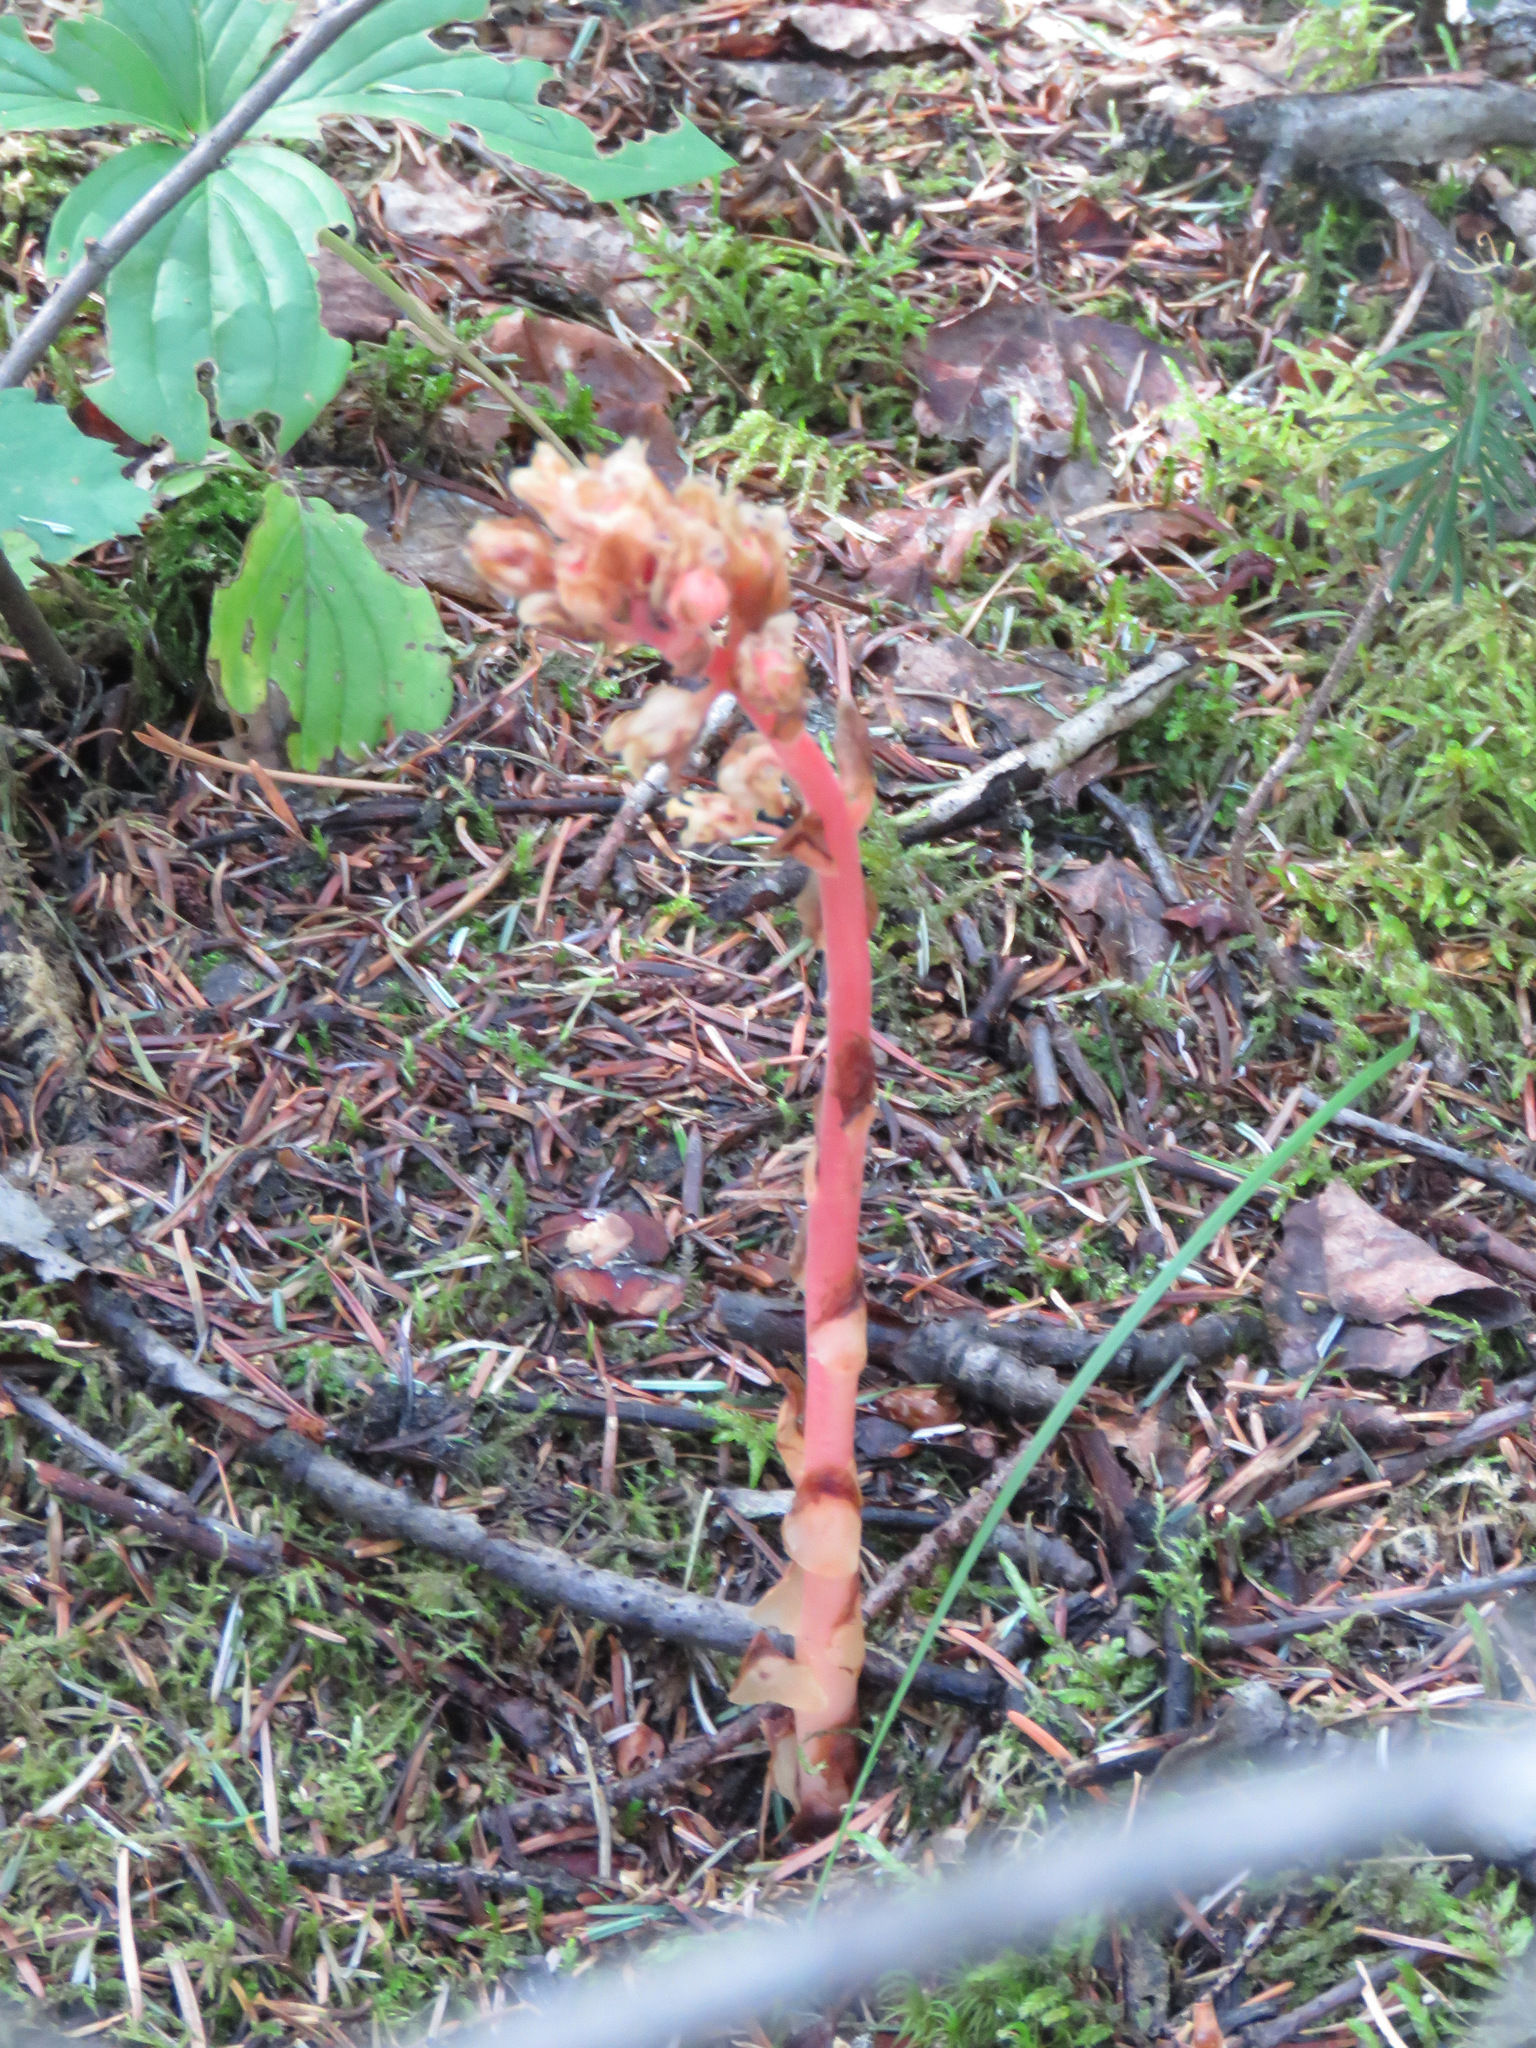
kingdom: Plantae
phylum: Tracheophyta
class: Magnoliopsida
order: Ericales
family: Ericaceae
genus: Hypopitys
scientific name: Hypopitys monotropa
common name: Yellow bird's-nest
